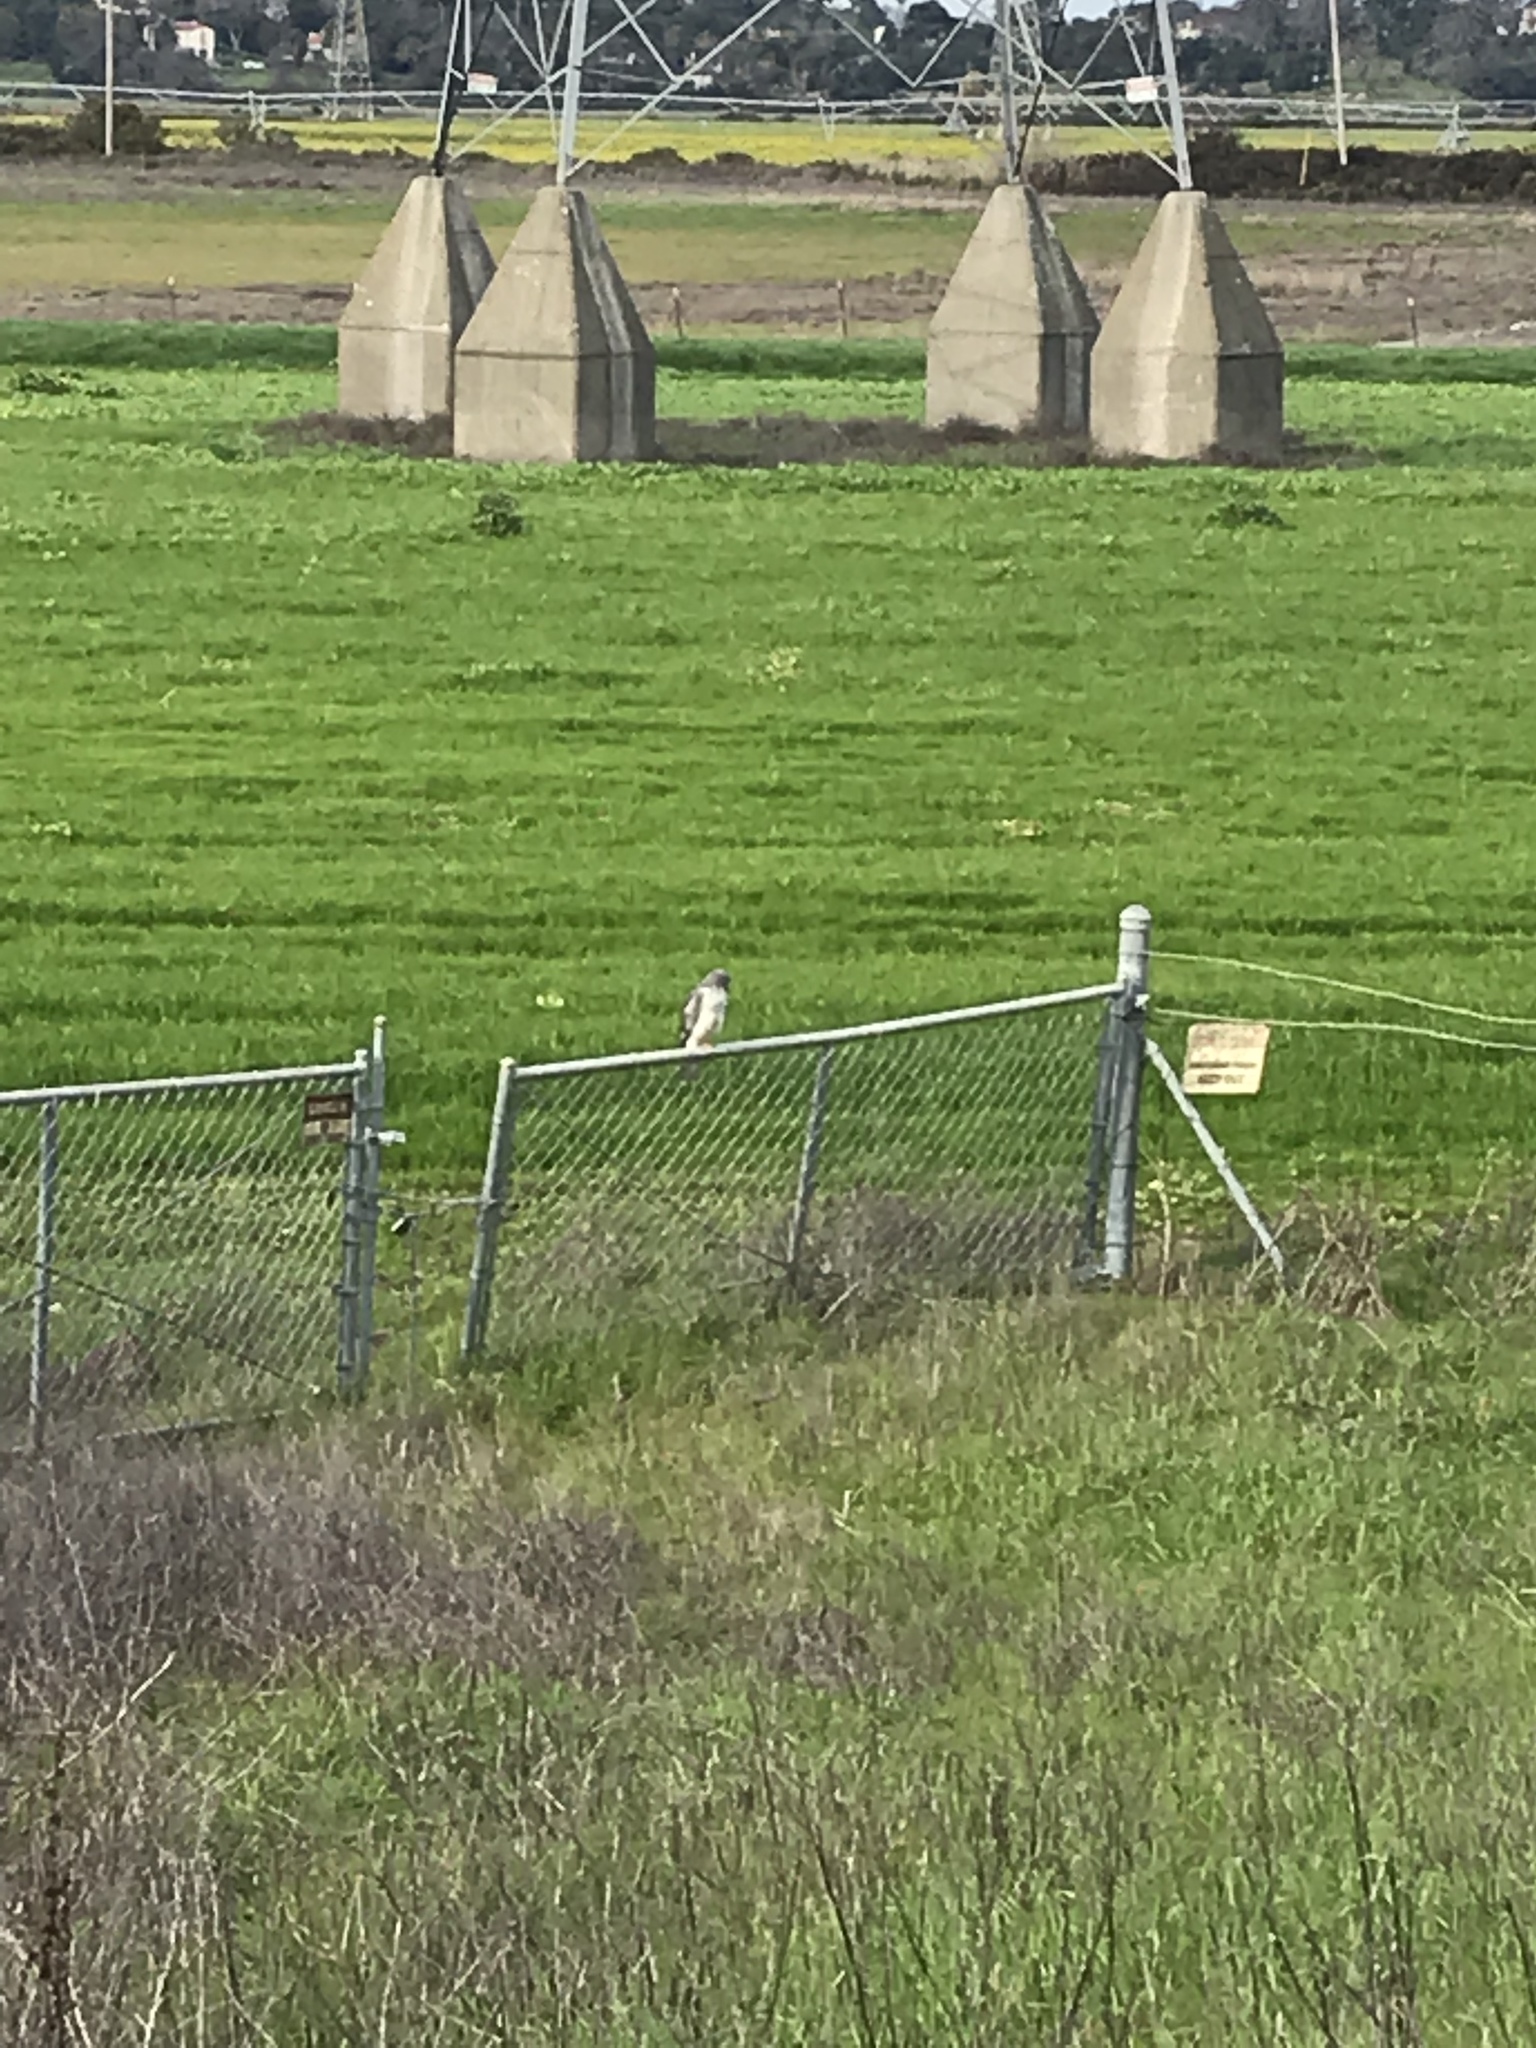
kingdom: Animalia
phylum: Chordata
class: Aves
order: Accipitriformes
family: Accipitridae
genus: Circus
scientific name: Circus cyaneus
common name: Hen harrier
